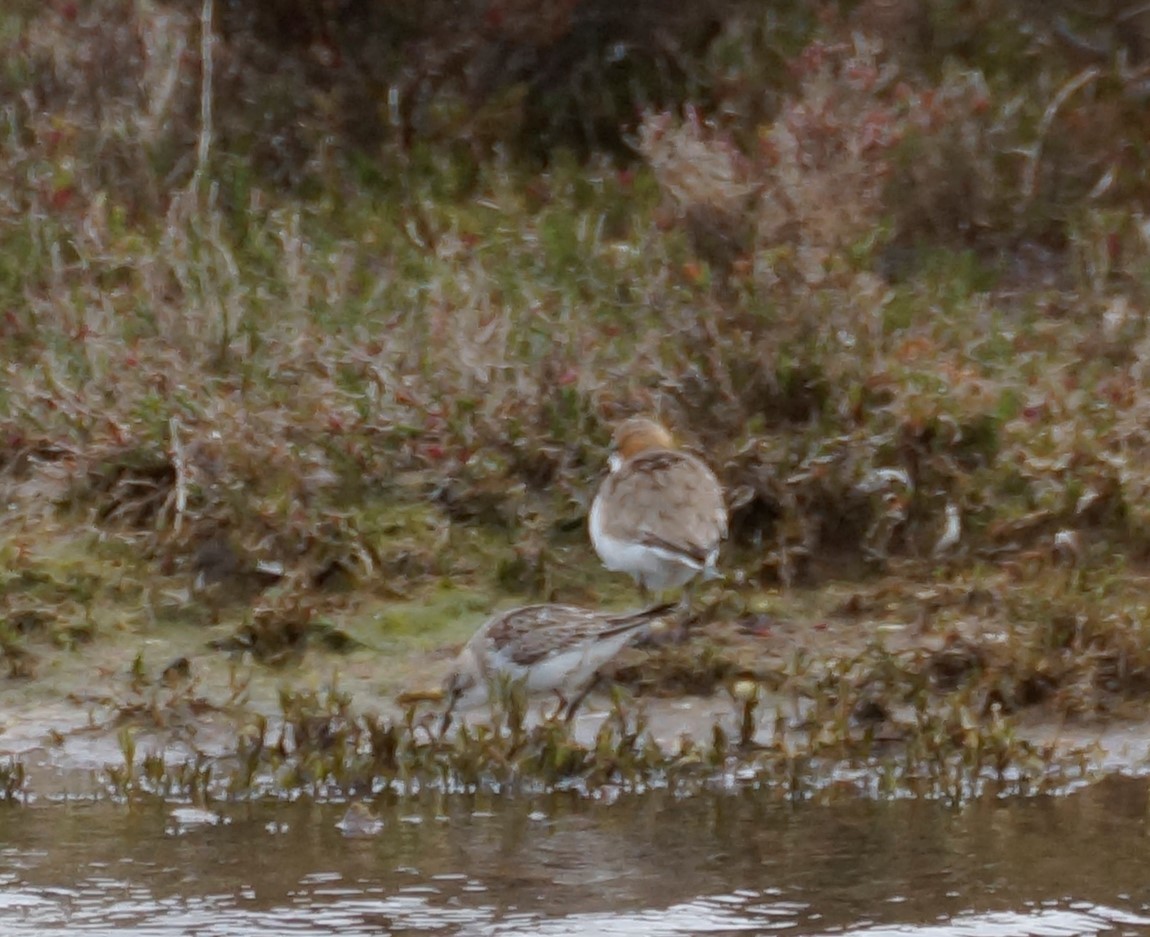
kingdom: Animalia
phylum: Chordata
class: Aves
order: Charadriiformes
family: Charadriidae
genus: Anarhynchus
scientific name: Anarhynchus
